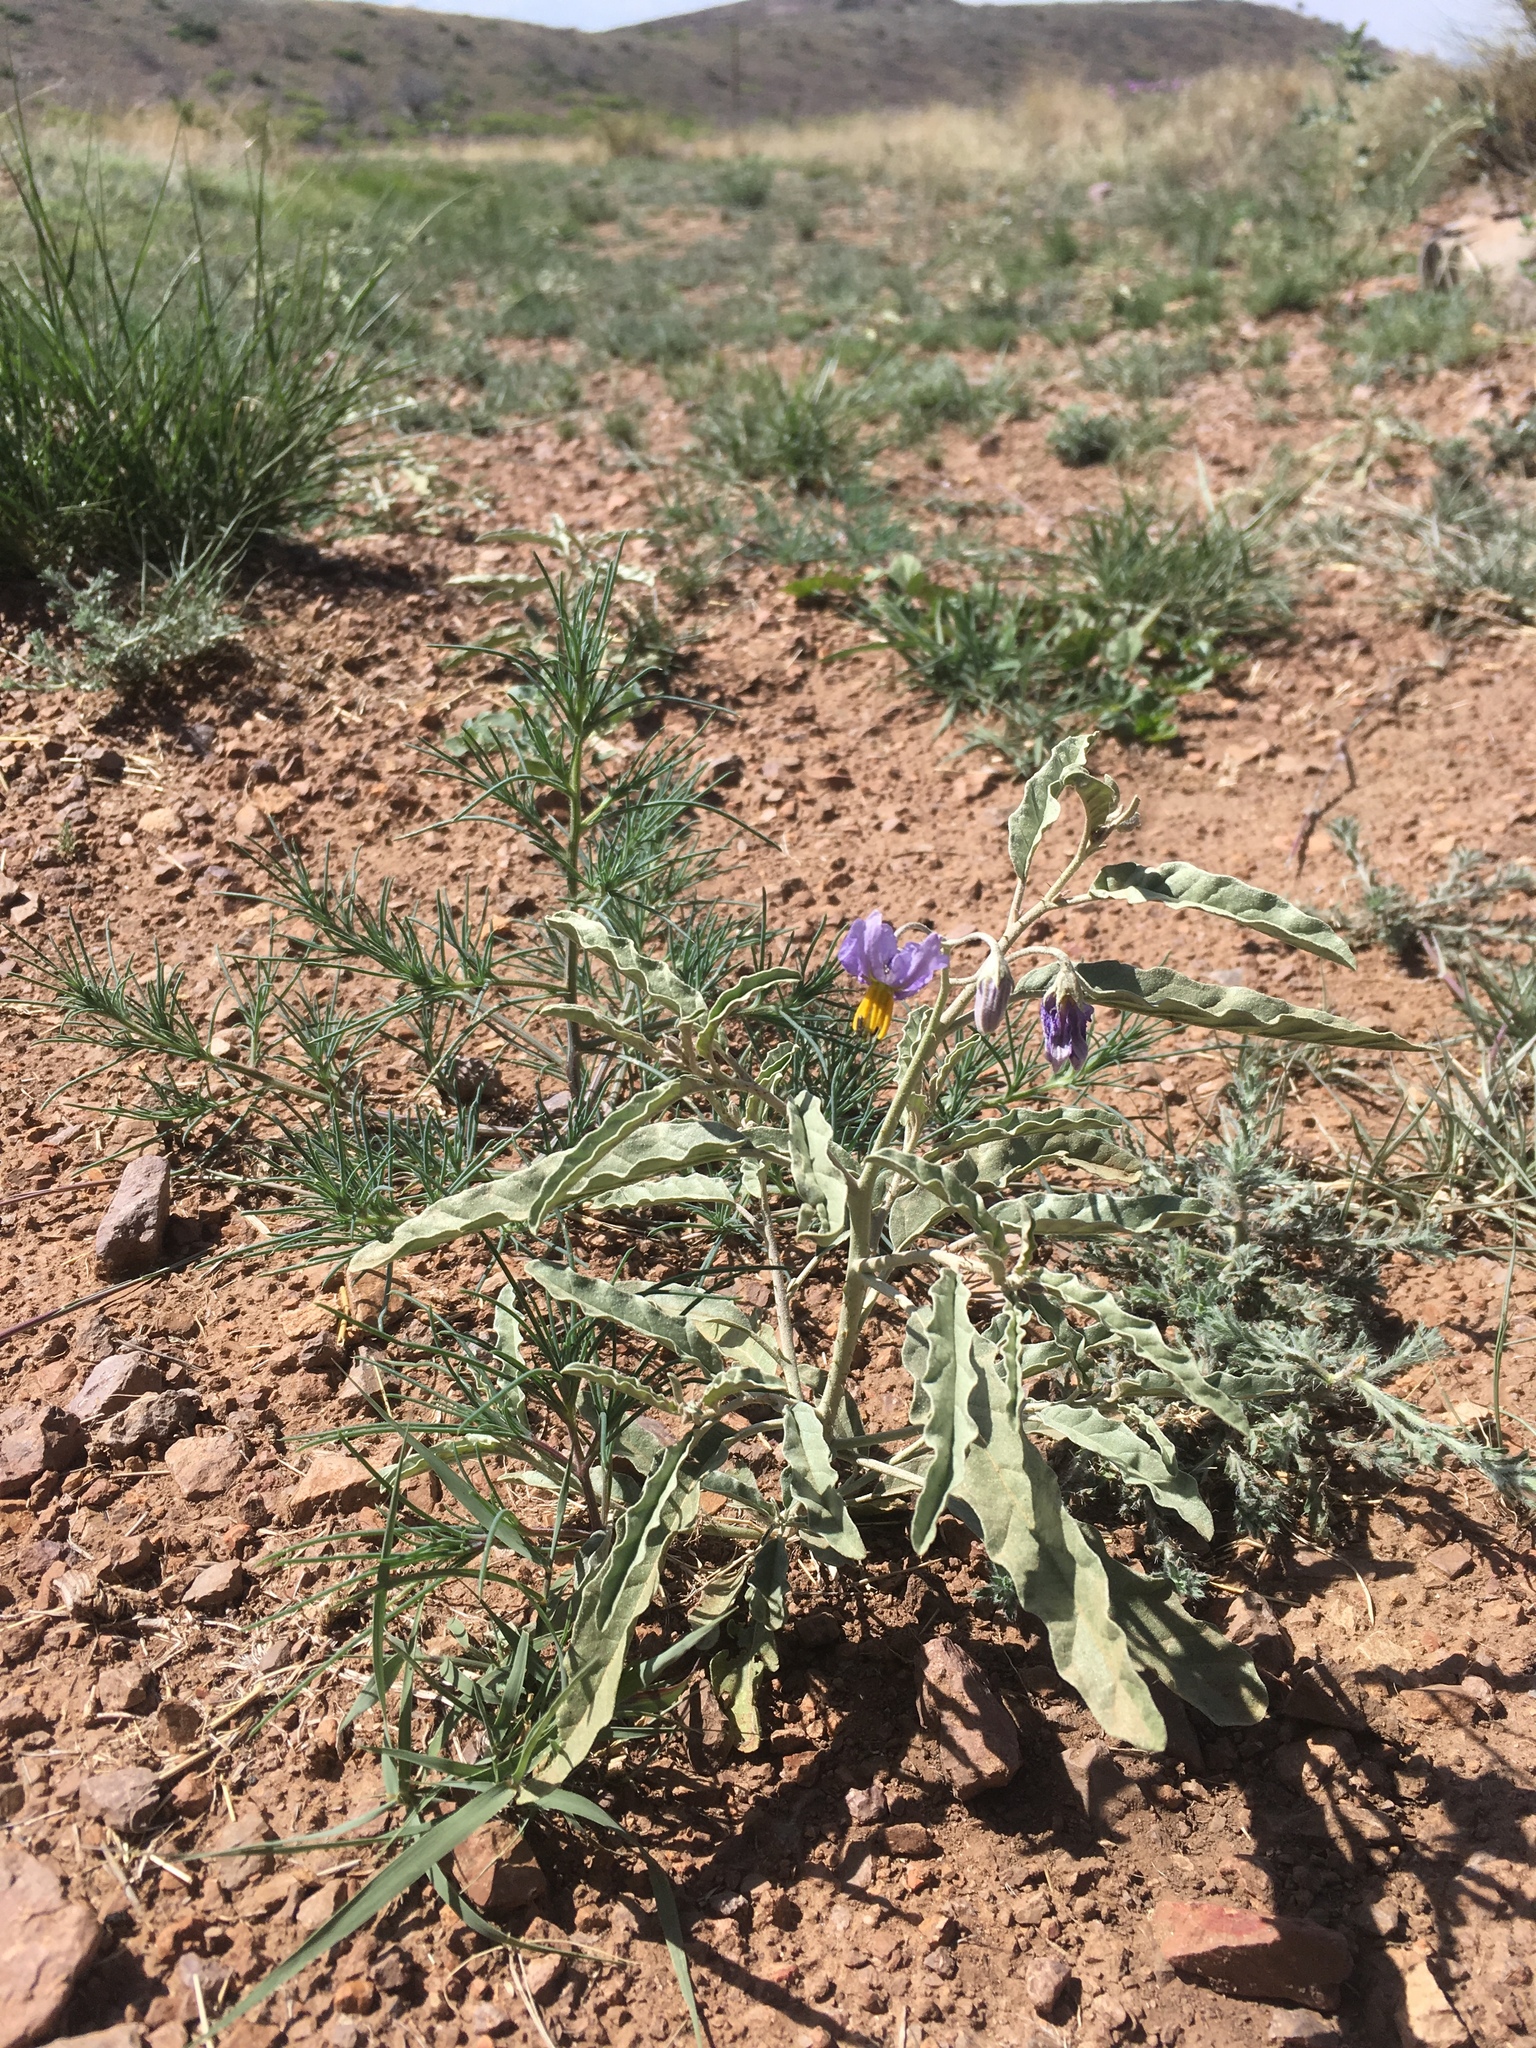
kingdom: Plantae
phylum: Tracheophyta
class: Magnoliopsida
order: Solanales
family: Solanaceae
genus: Solanum
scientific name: Solanum elaeagnifolium
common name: Silverleaf nightshade
